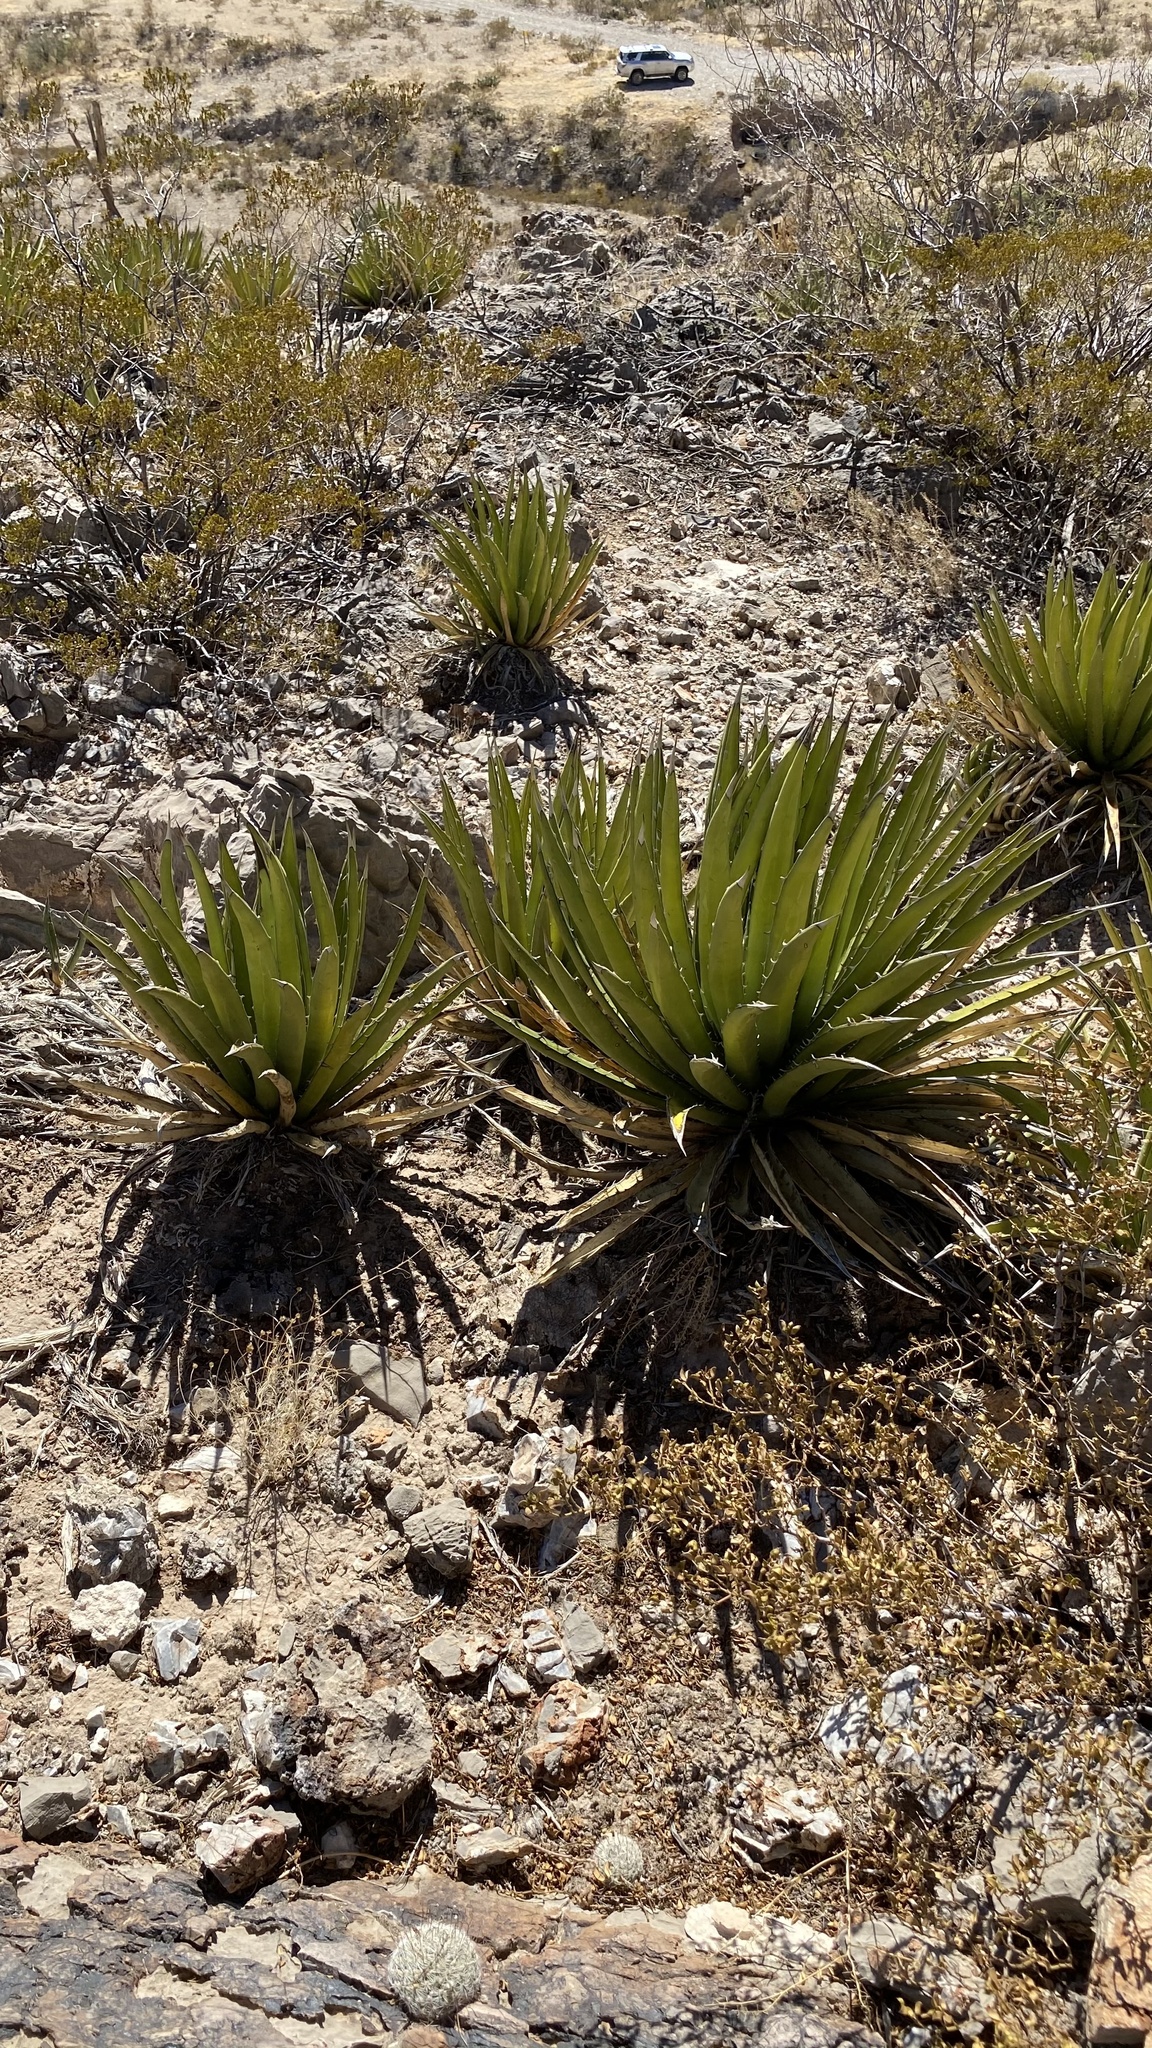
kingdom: Plantae
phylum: Tracheophyta
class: Liliopsida
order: Asparagales
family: Asparagaceae
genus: Agave
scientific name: Agave lechuguilla
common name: Lecheguilla agave
